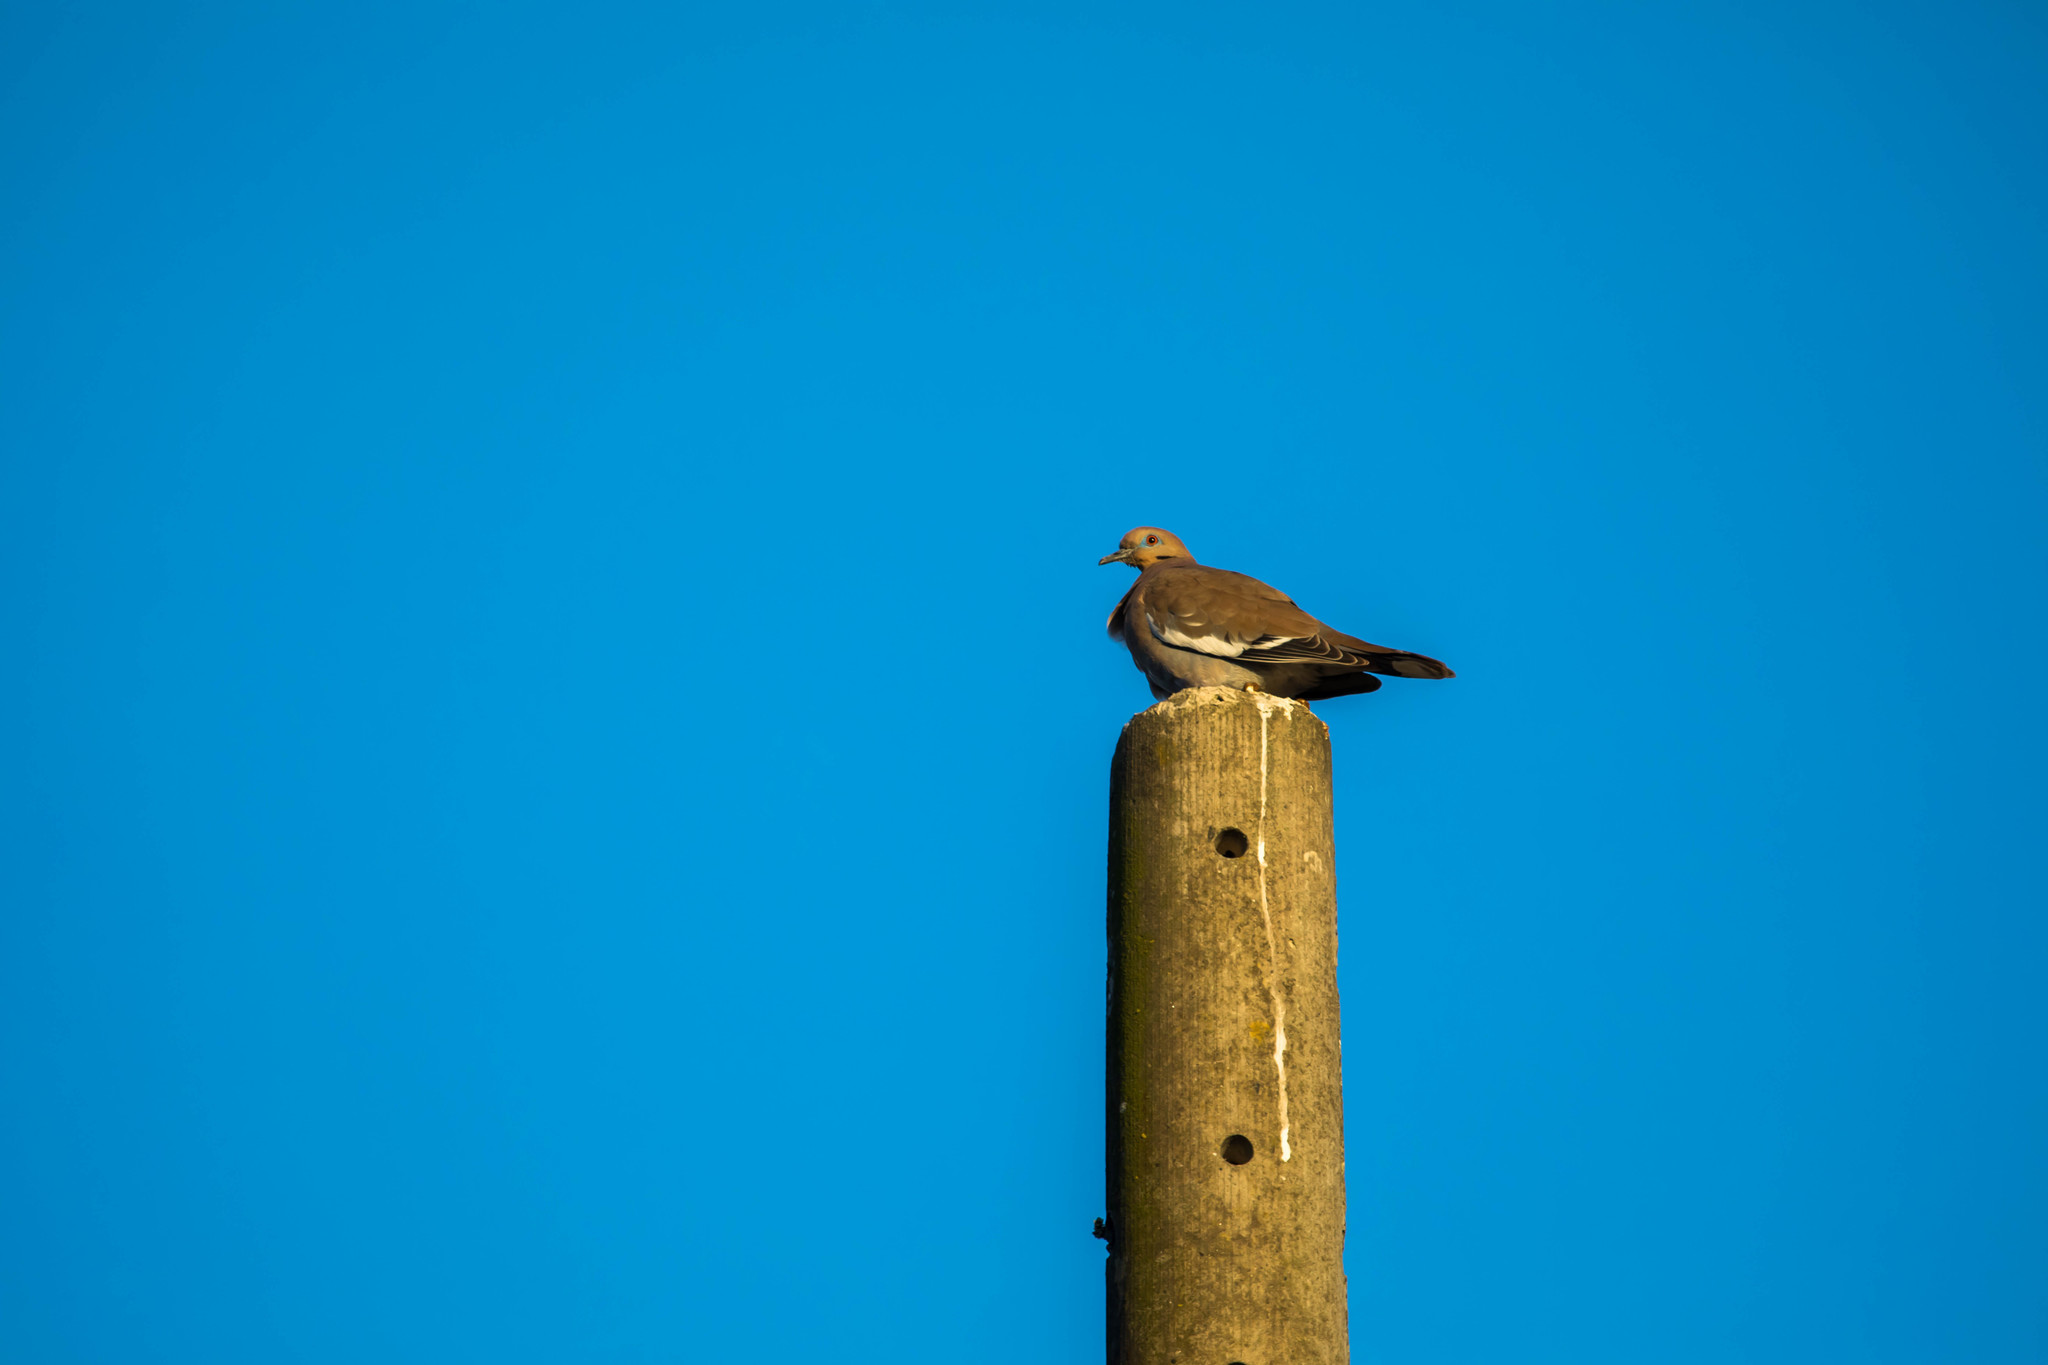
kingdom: Animalia
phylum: Chordata
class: Aves
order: Columbiformes
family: Columbidae
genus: Zenaida
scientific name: Zenaida asiatica
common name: White-winged dove
